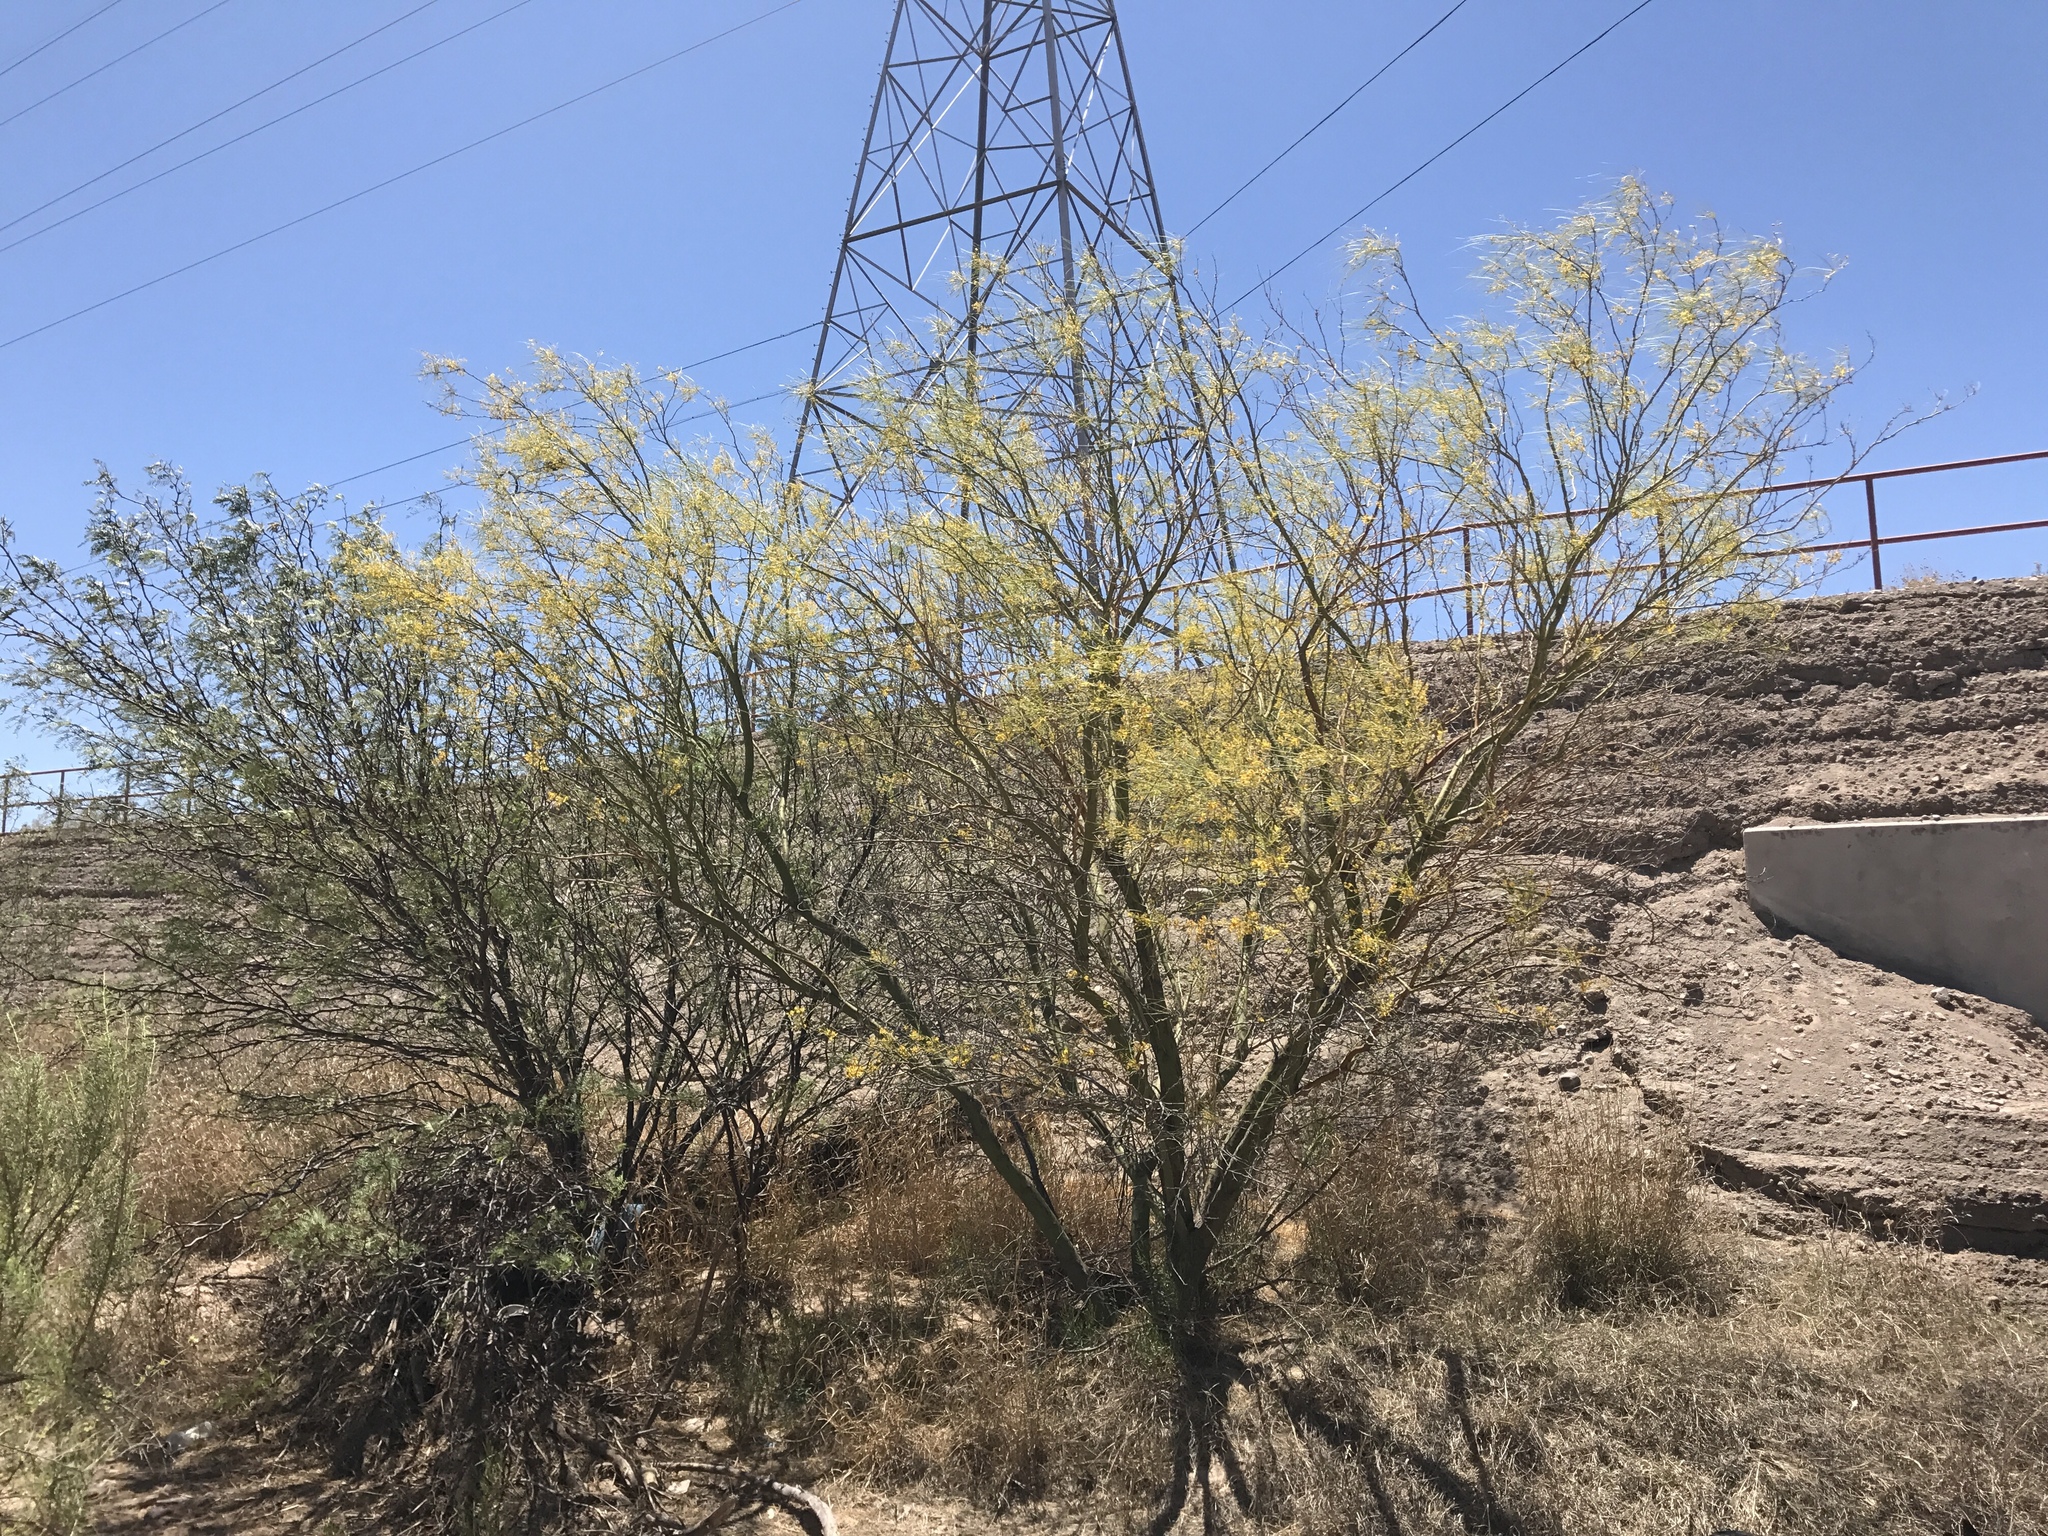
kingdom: Plantae
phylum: Tracheophyta
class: Magnoliopsida
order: Fabales
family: Fabaceae
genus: Parkinsonia
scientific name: Parkinsonia aculeata
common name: Jerusalem thorn
